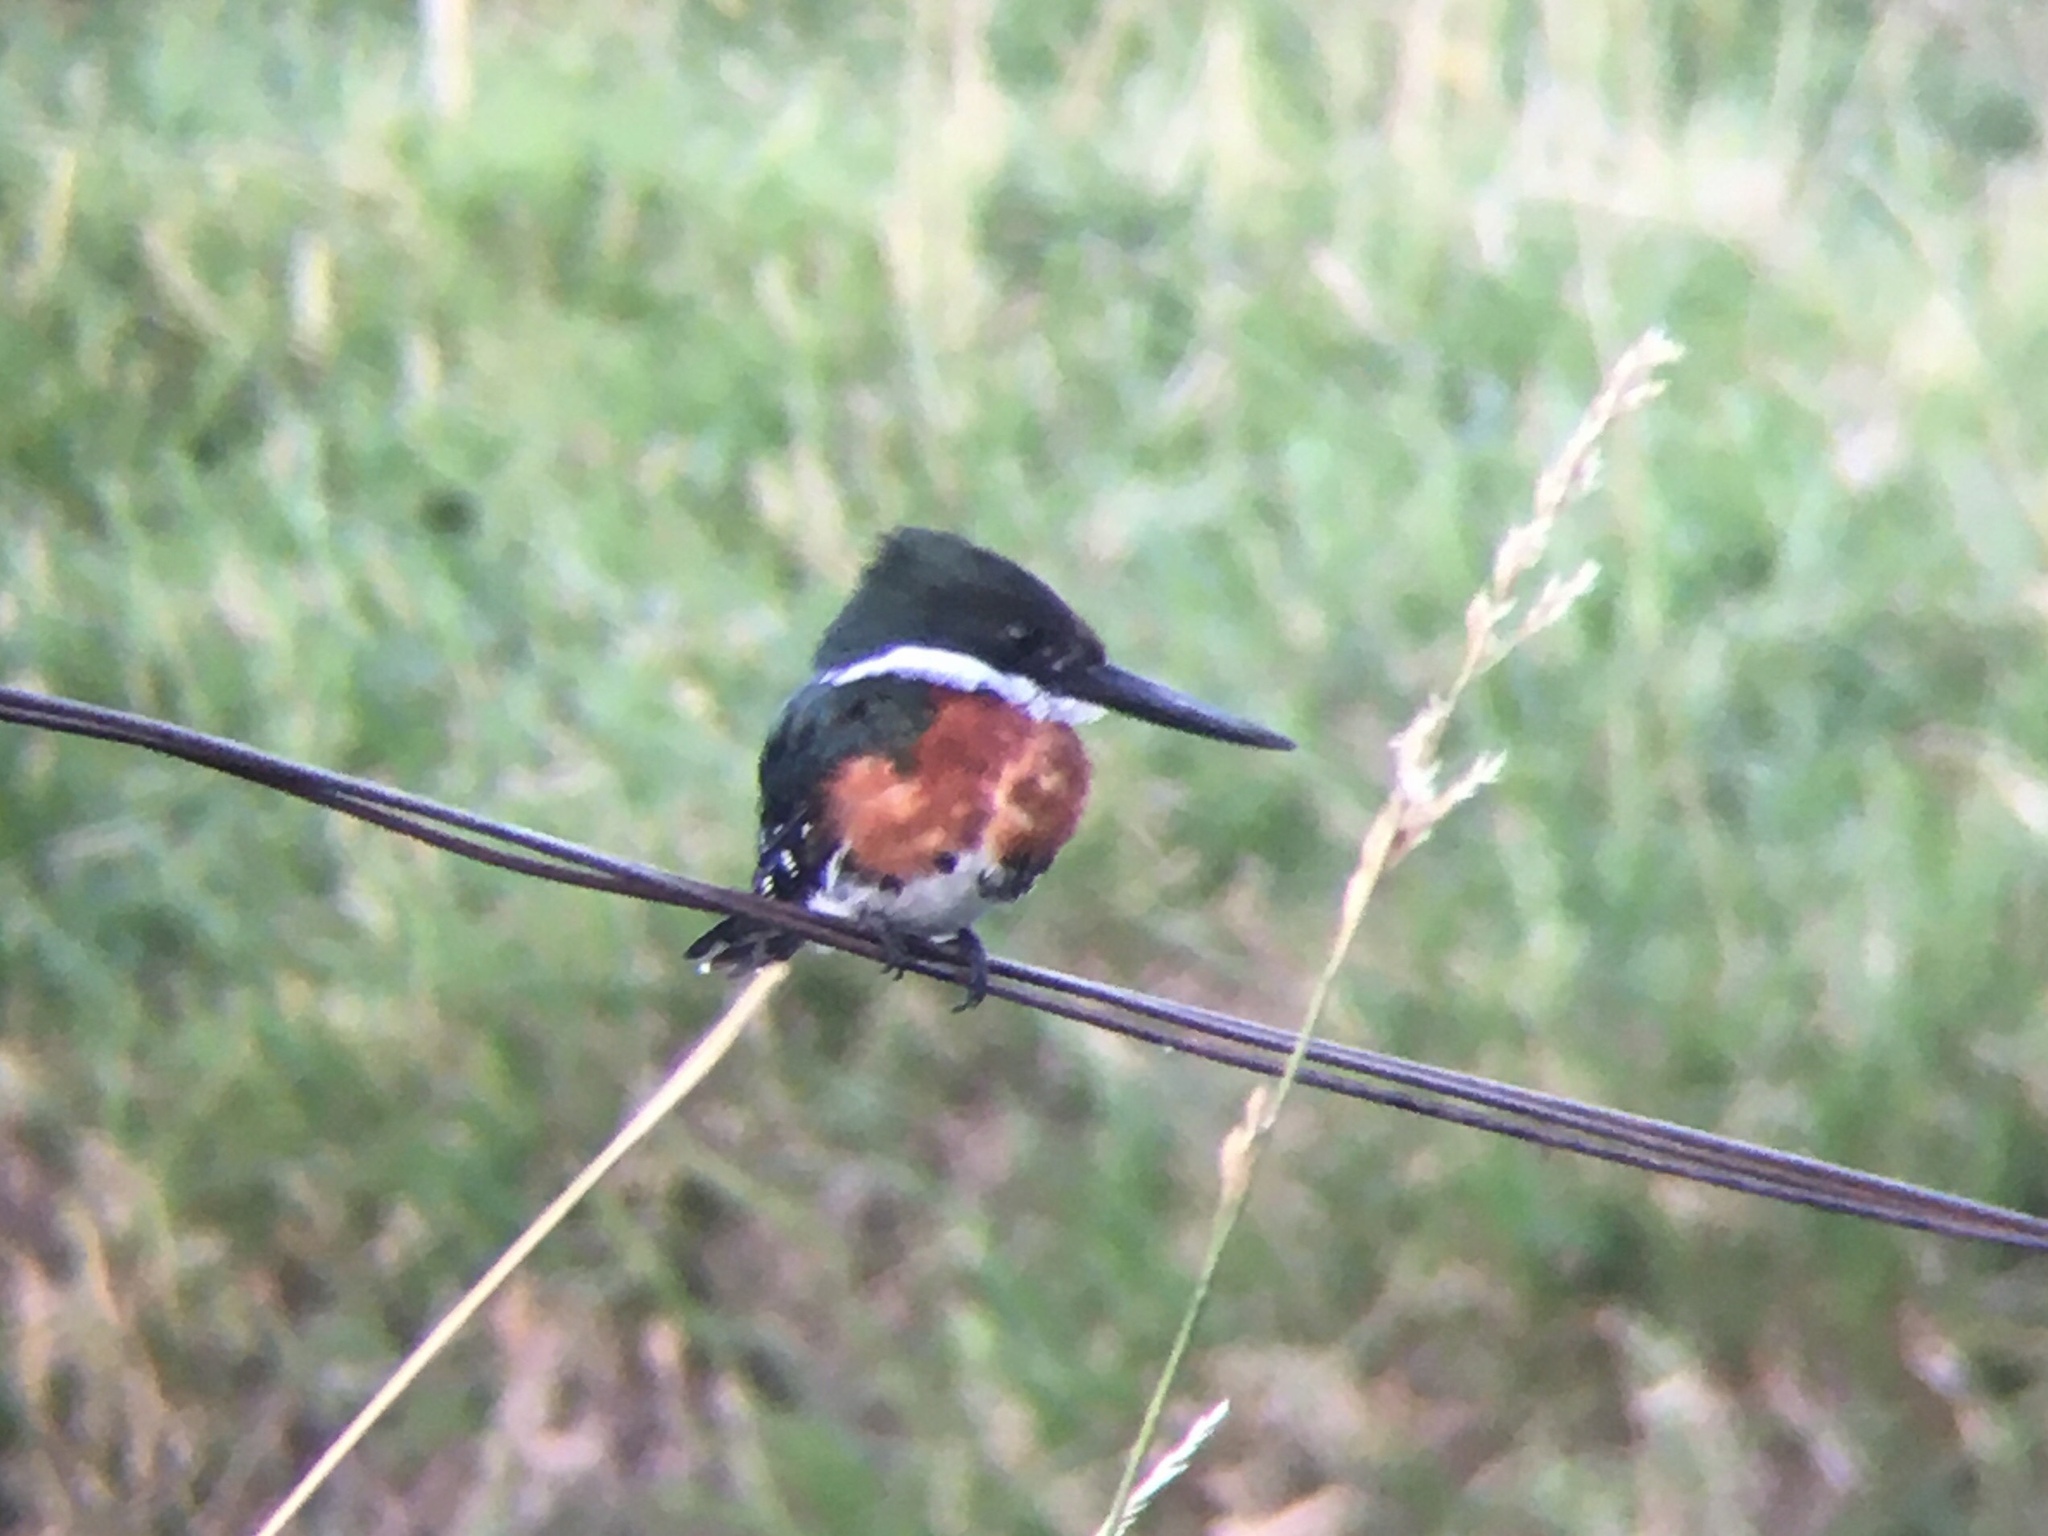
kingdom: Animalia
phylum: Chordata
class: Aves
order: Coraciiformes
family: Alcedinidae
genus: Chloroceryle
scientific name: Chloroceryle americana
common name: Green kingfisher
